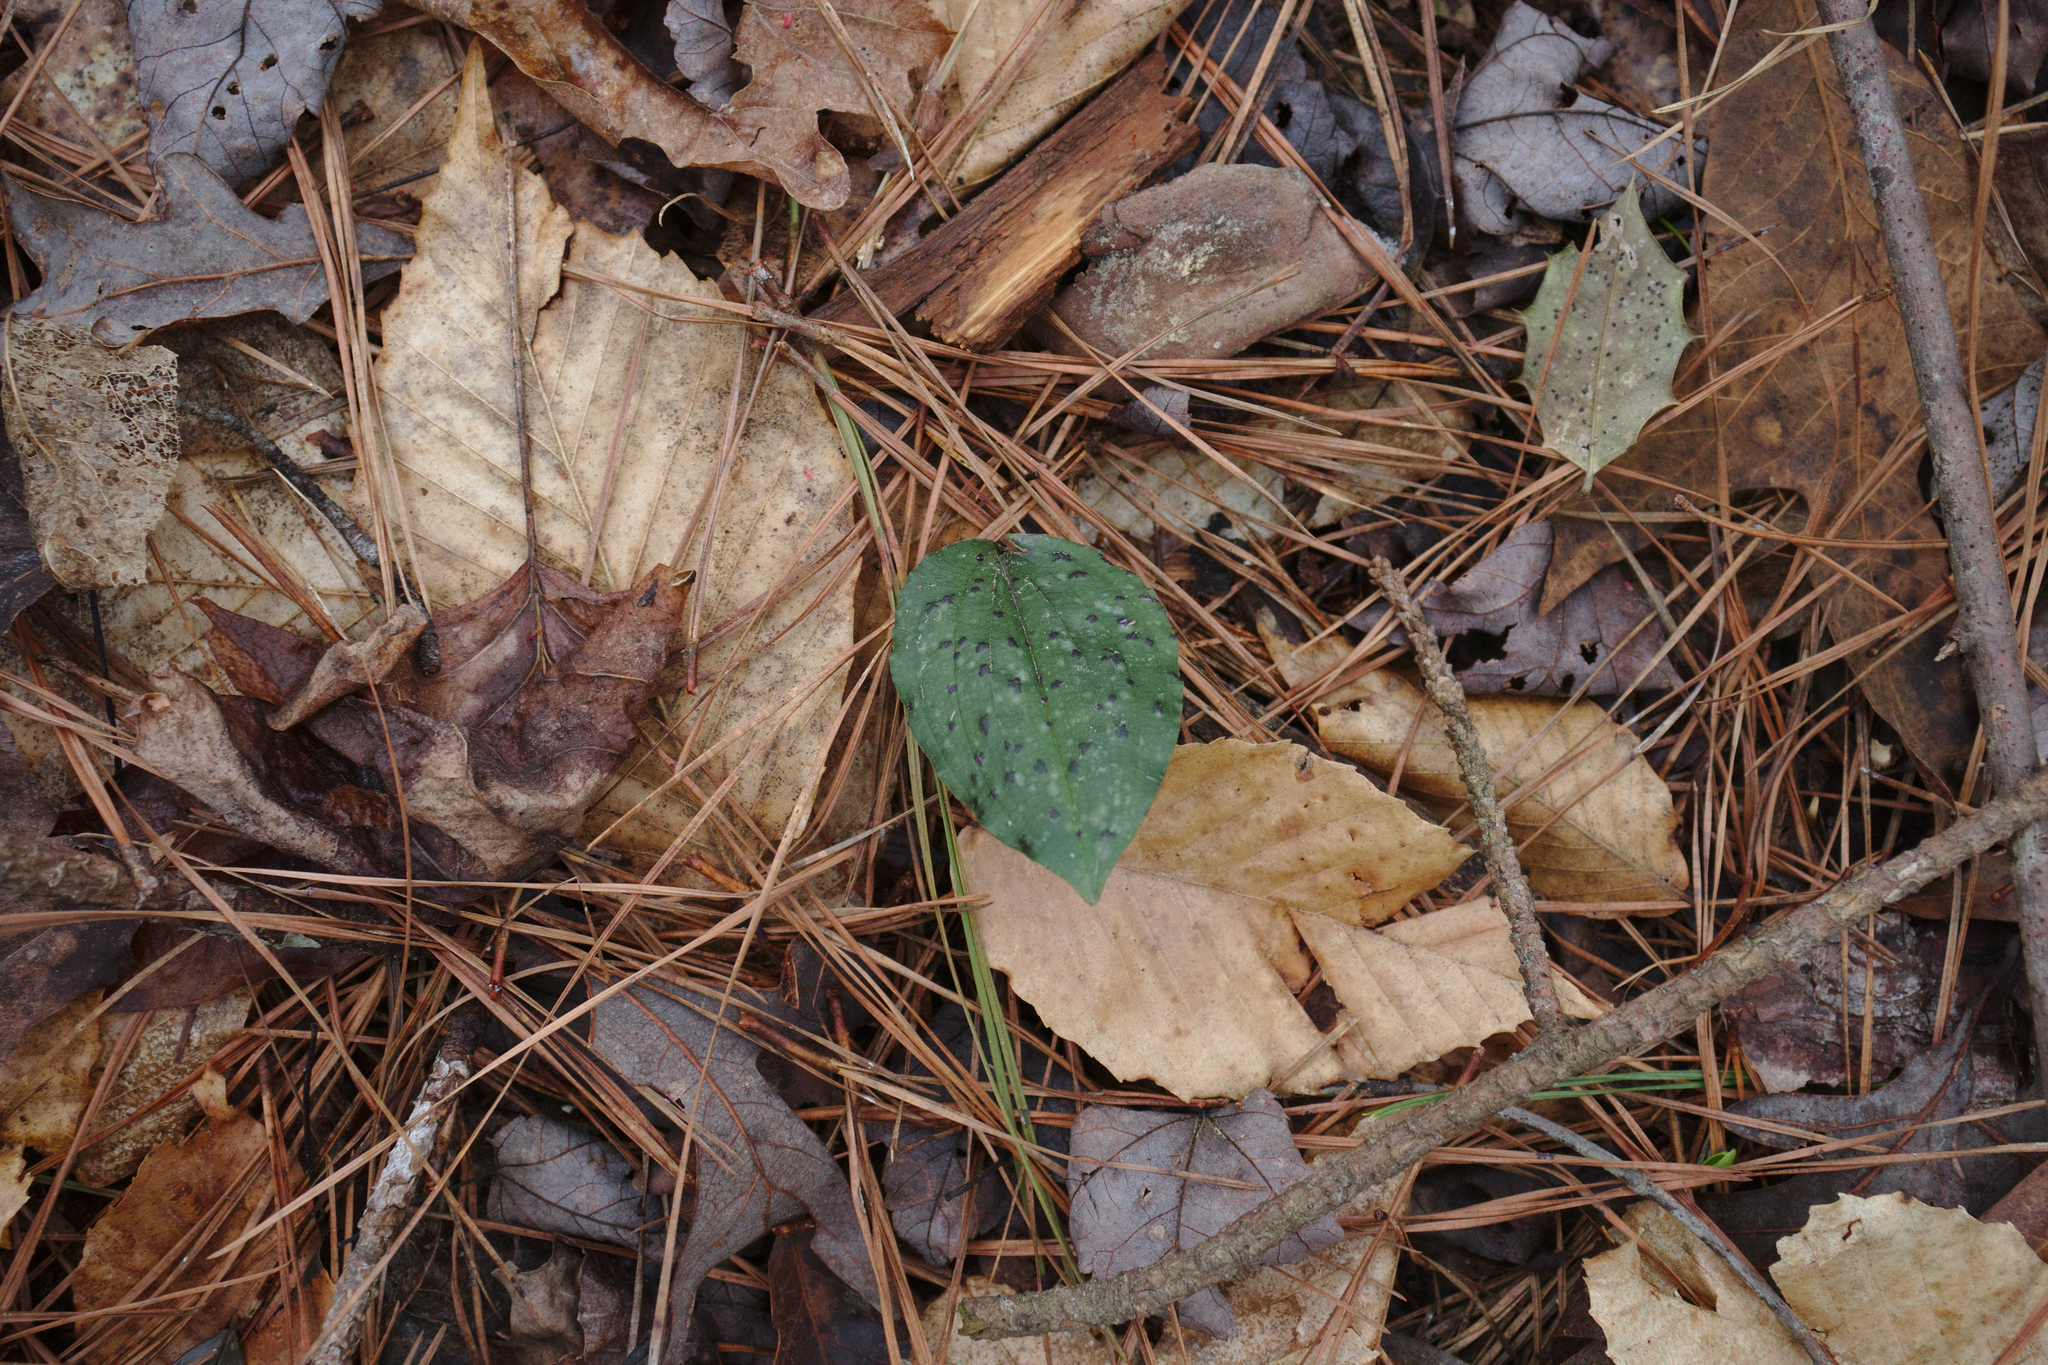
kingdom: Plantae
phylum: Tracheophyta
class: Liliopsida
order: Asparagales
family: Orchidaceae
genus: Tipularia
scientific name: Tipularia discolor
